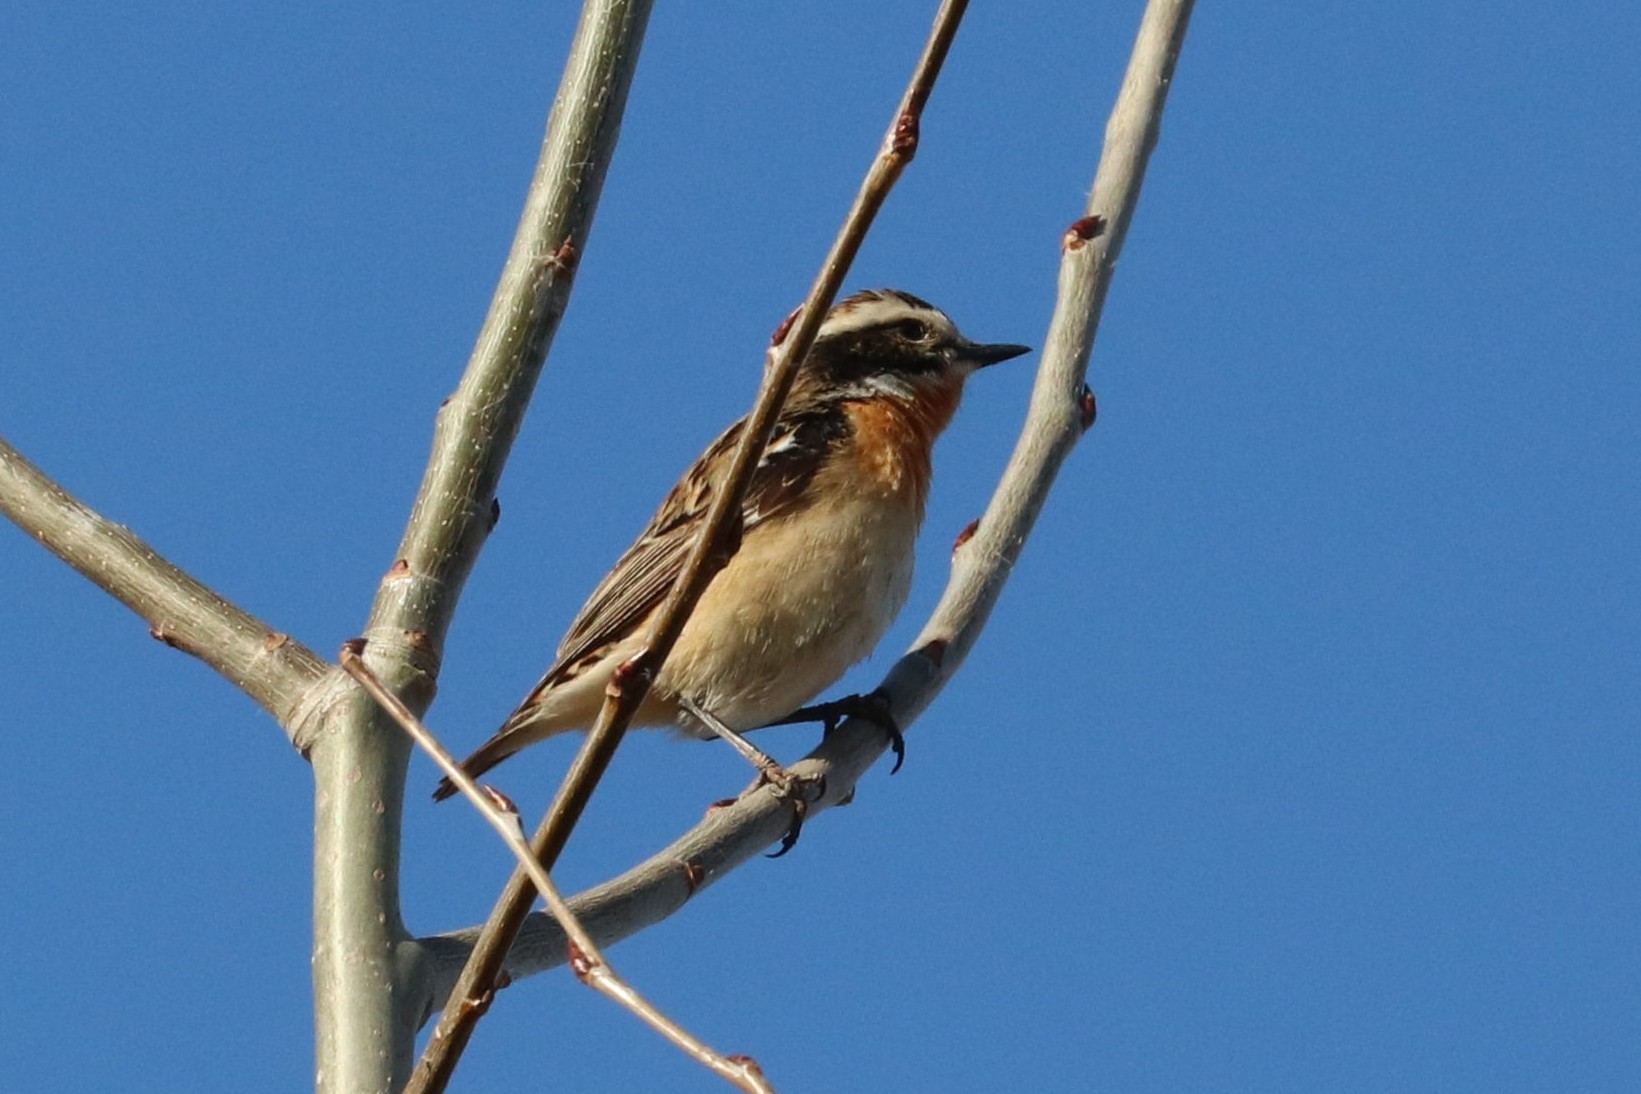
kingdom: Animalia
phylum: Chordata
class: Aves
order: Passeriformes
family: Muscicapidae
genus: Saxicola
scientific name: Saxicola rubetra
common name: Whinchat
